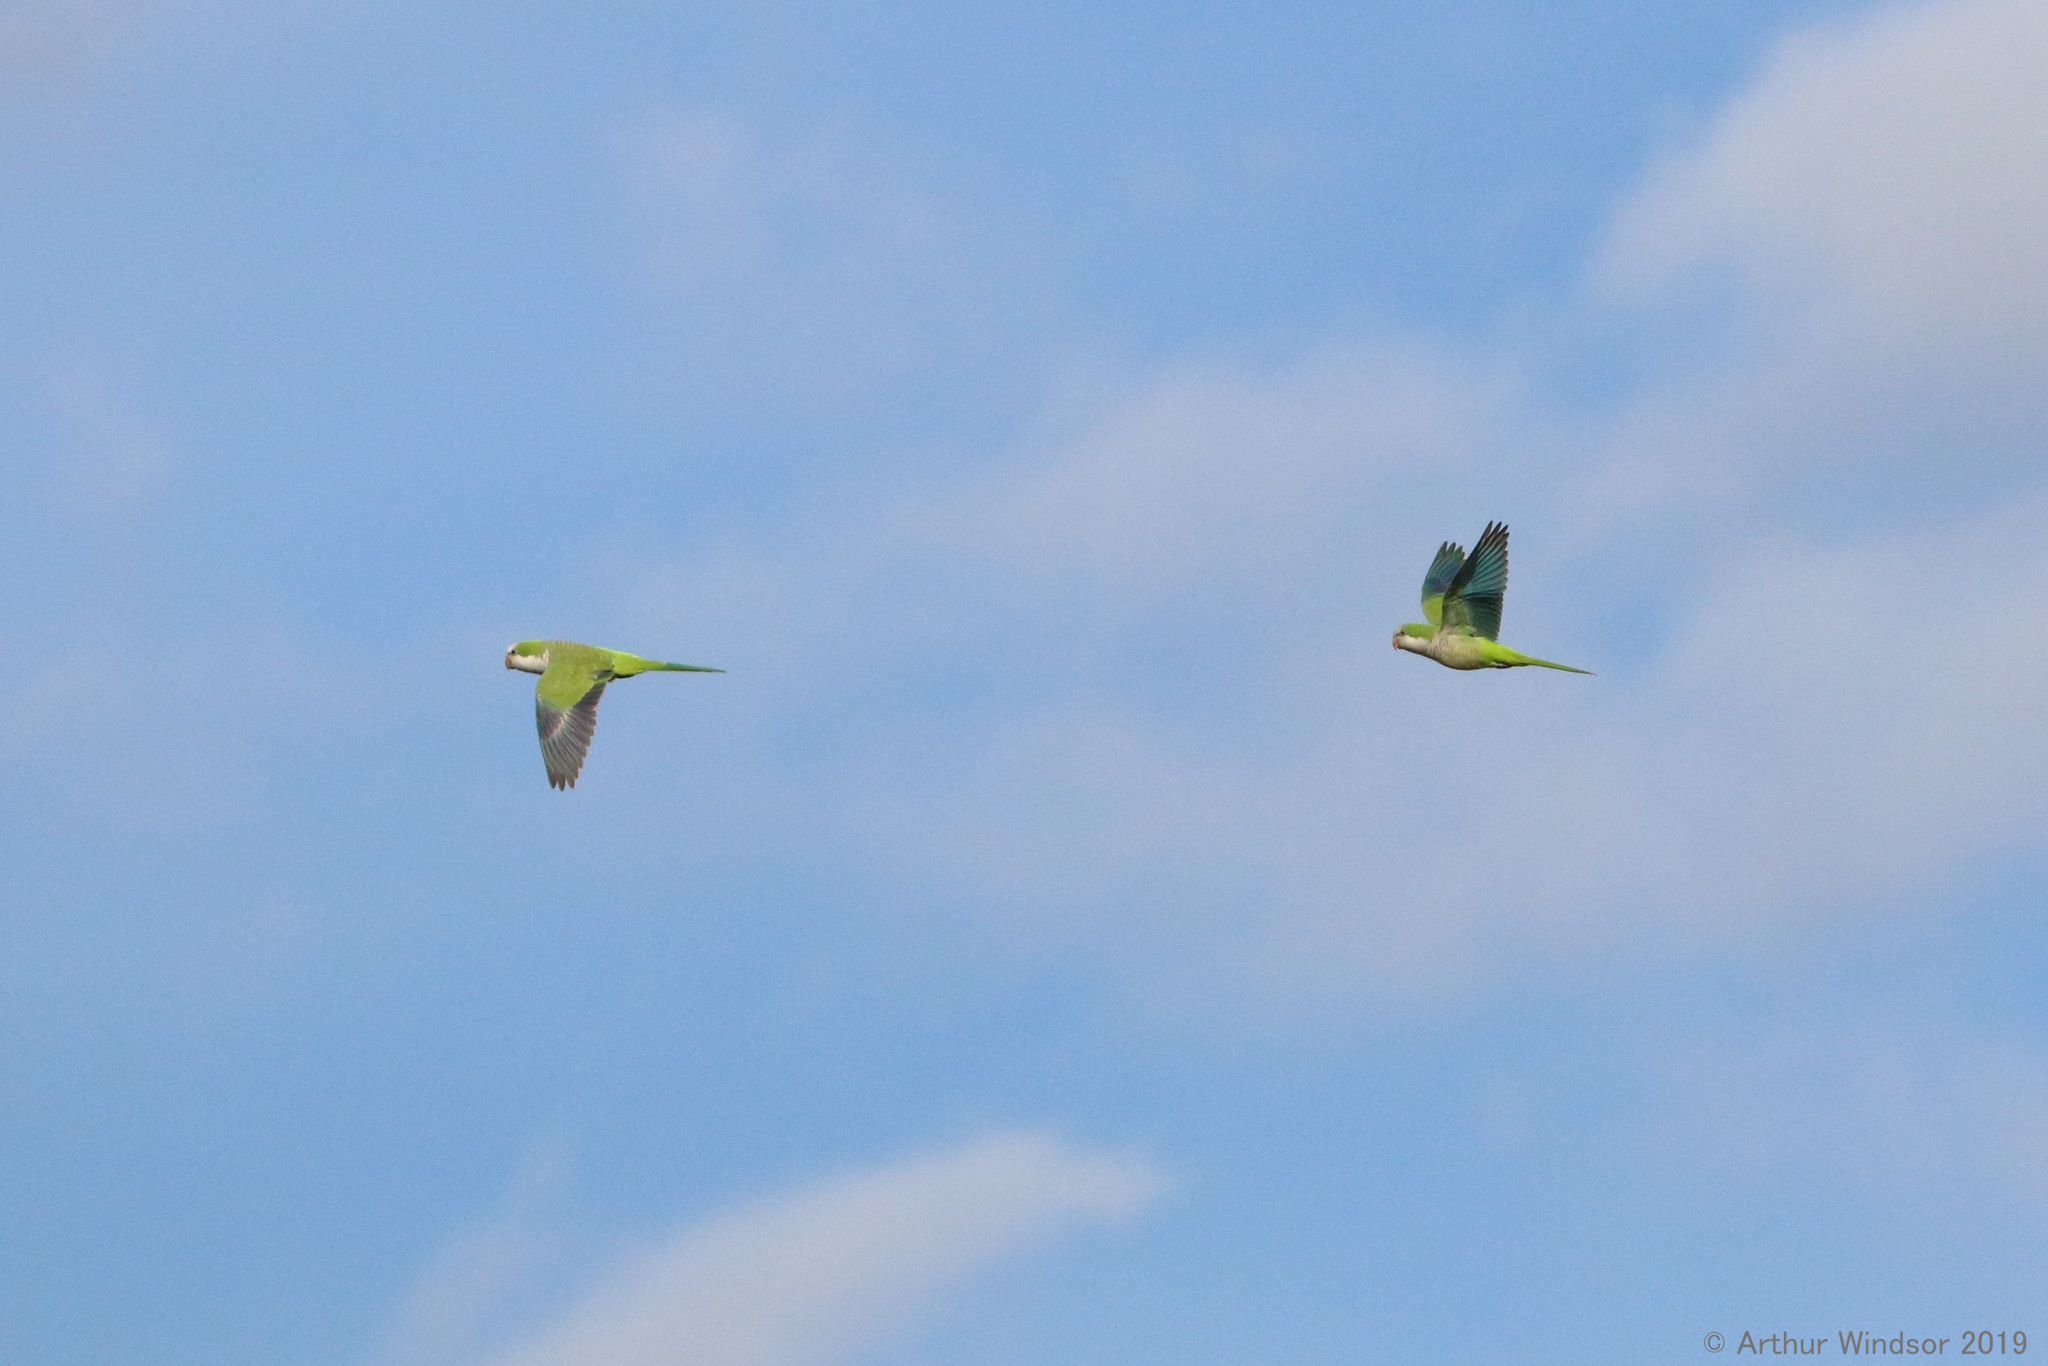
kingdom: Animalia
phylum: Chordata
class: Aves
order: Psittaciformes
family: Psittacidae
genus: Myiopsitta
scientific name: Myiopsitta monachus
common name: Monk parakeet
